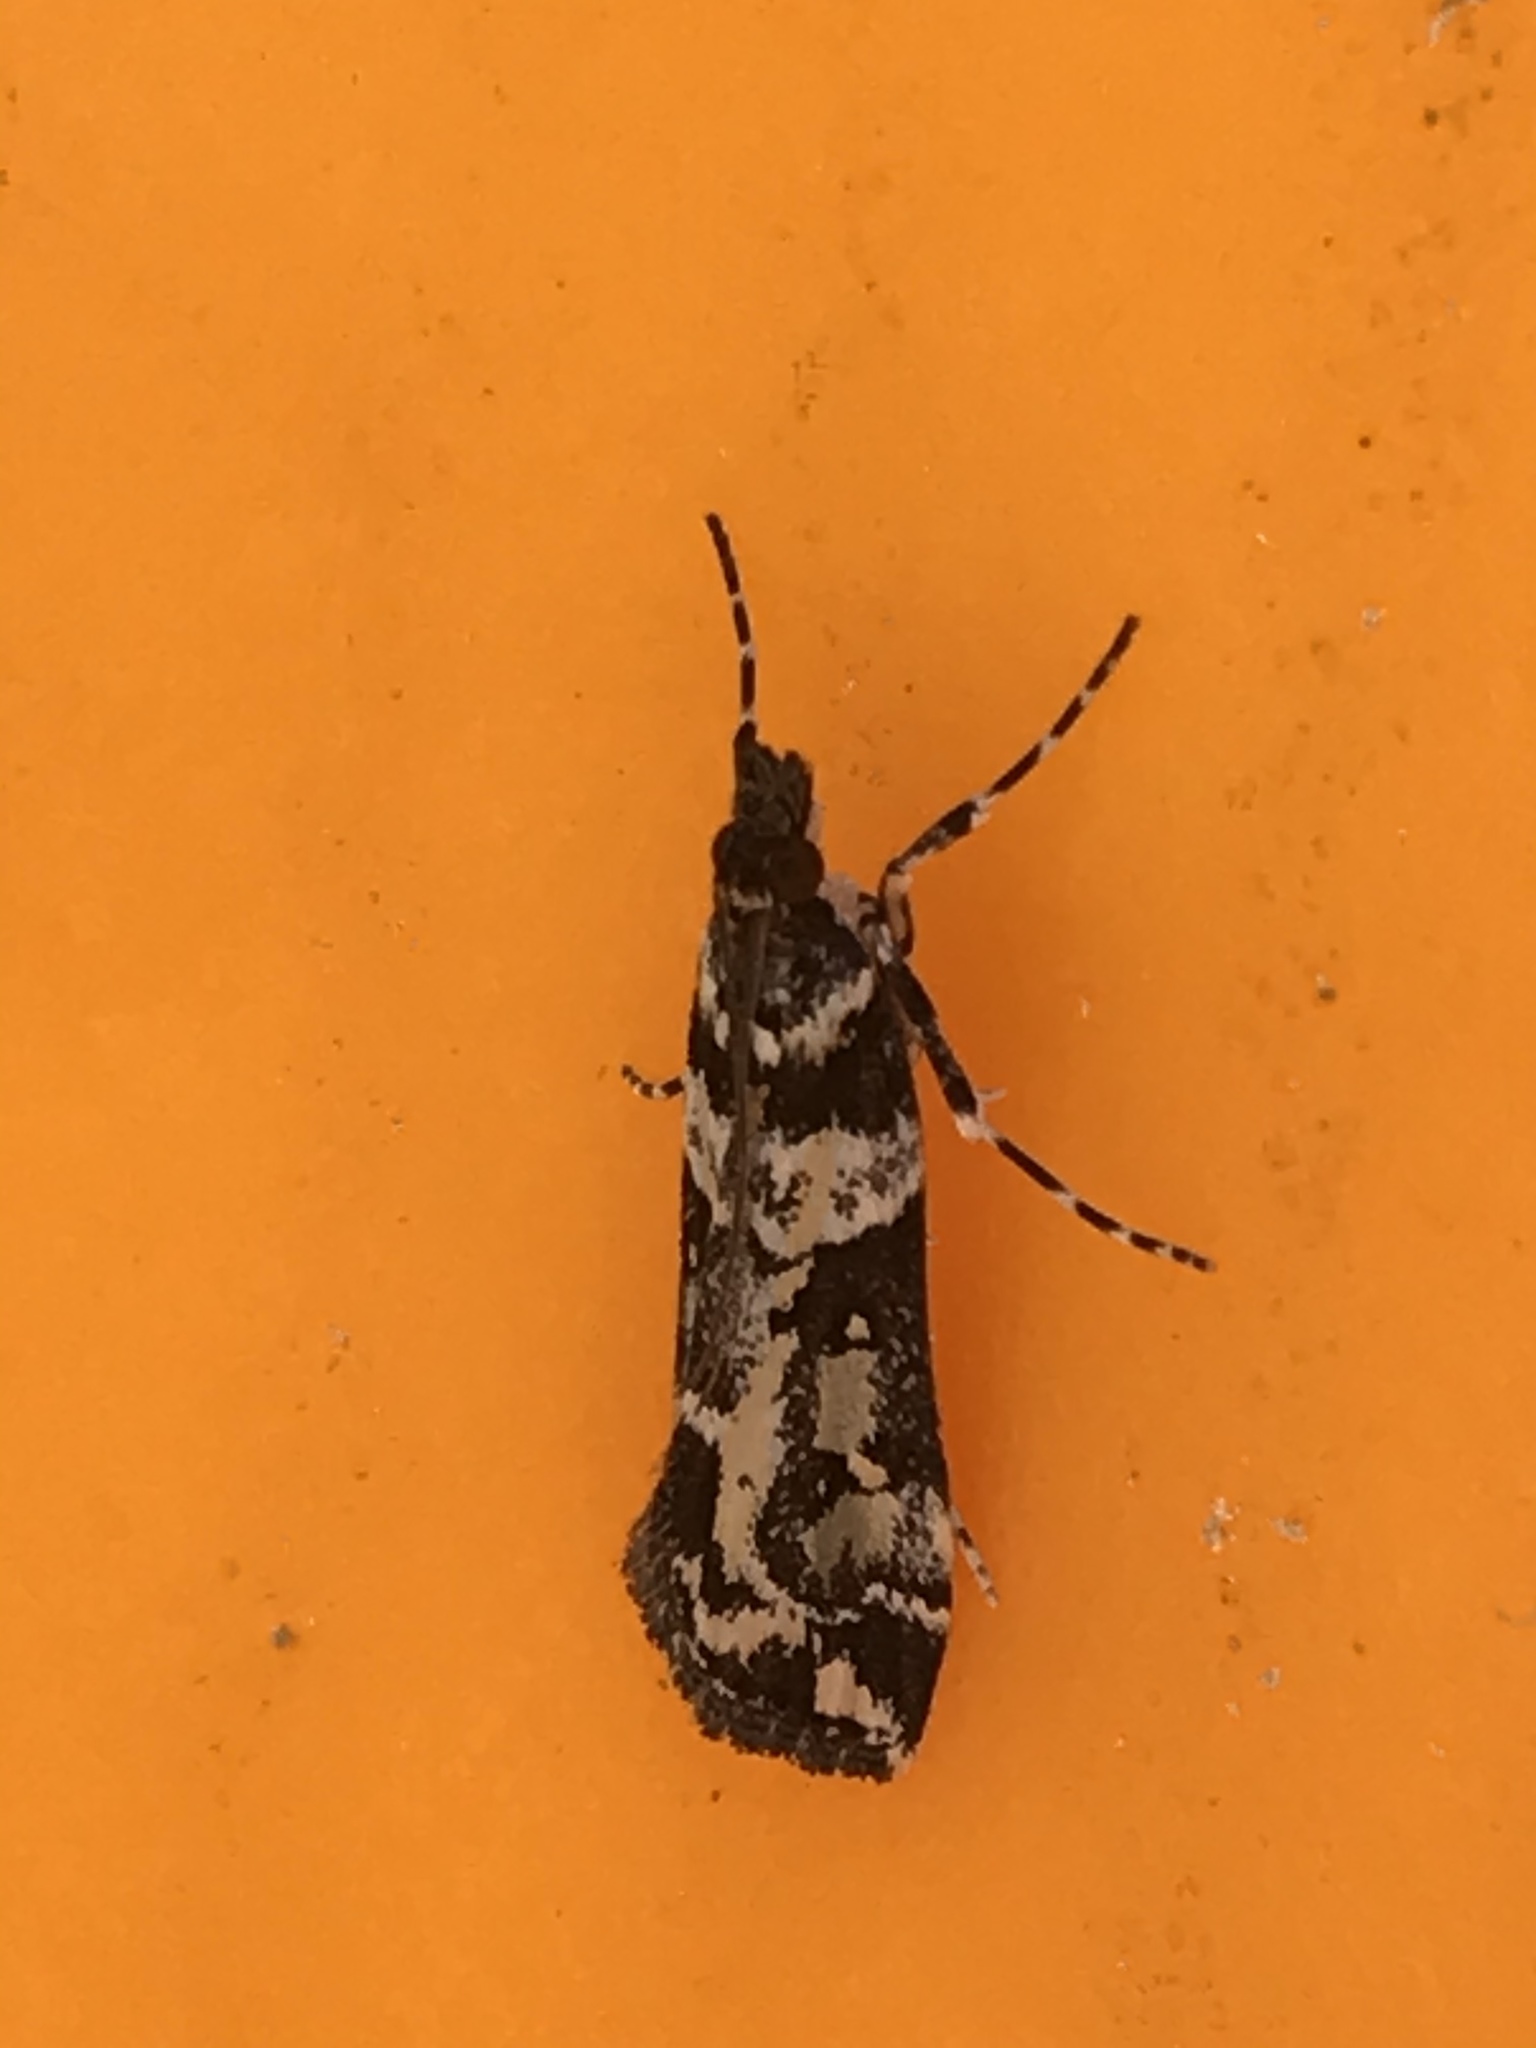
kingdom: Animalia
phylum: Arthropoda
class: Insecta
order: Lepidoptera
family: Crambidae
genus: Eudonia
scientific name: Eudonia diphtheralis
